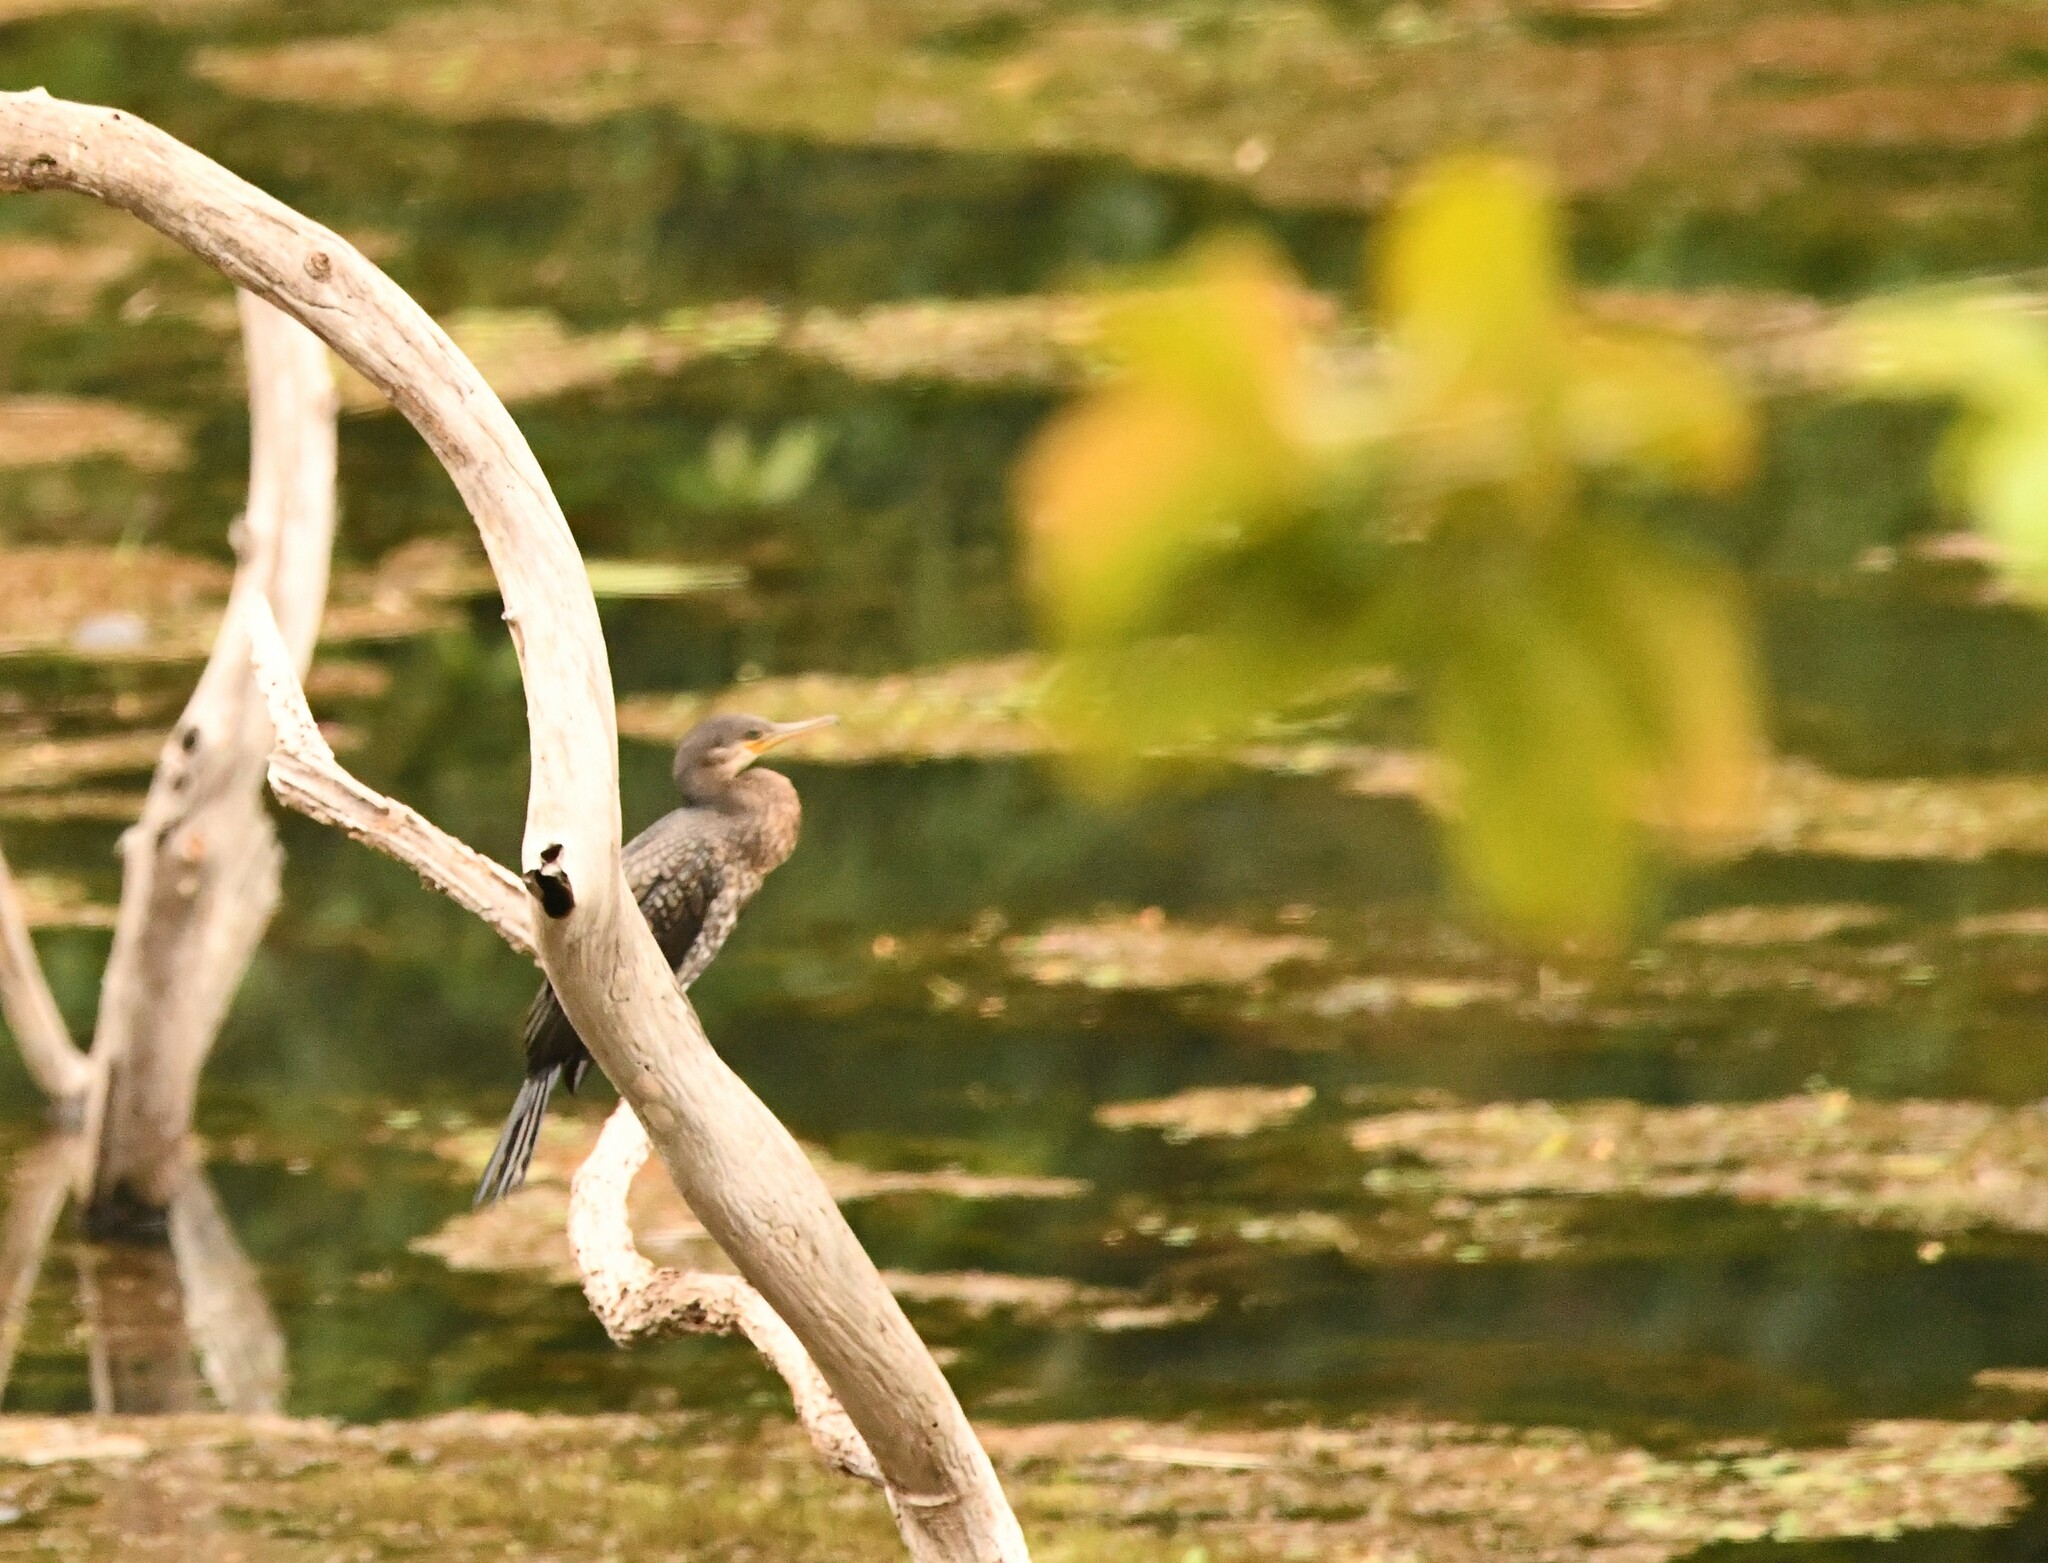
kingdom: Animalia
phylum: Chordata
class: Aves
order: Suliformes
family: Phalacrocoracidae
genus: Phalacrocorax
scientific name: Phalacrocorax fuscicollis
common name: Indian cormorant
